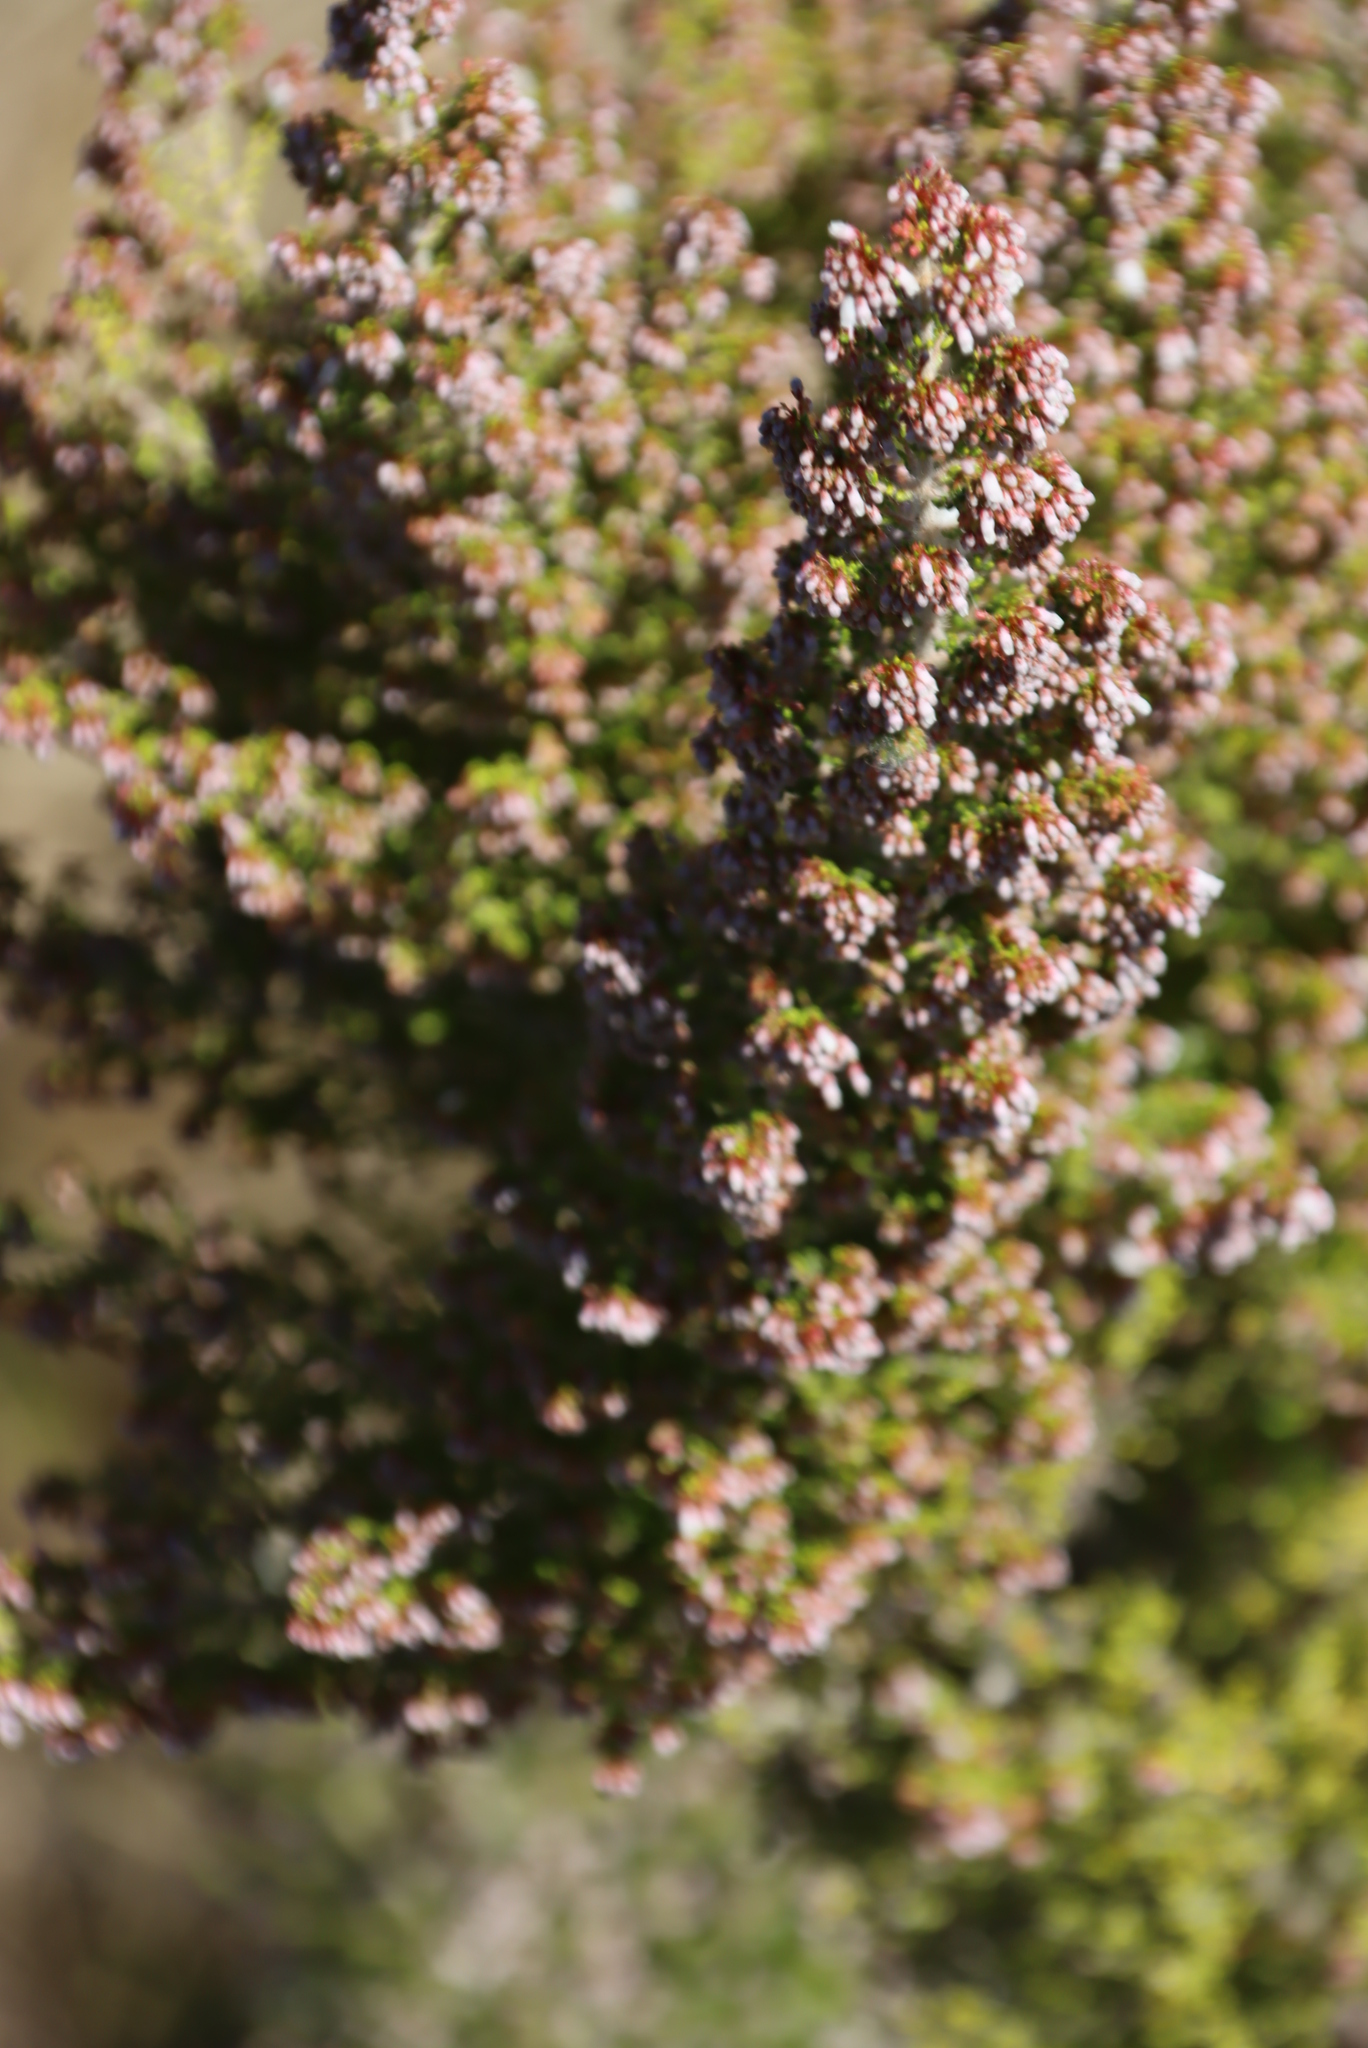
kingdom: Plantae
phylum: Tracheophyta
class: Magnoliopsida
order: Ericales
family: Ericaceae
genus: Erica
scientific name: Erica scabriuscula
